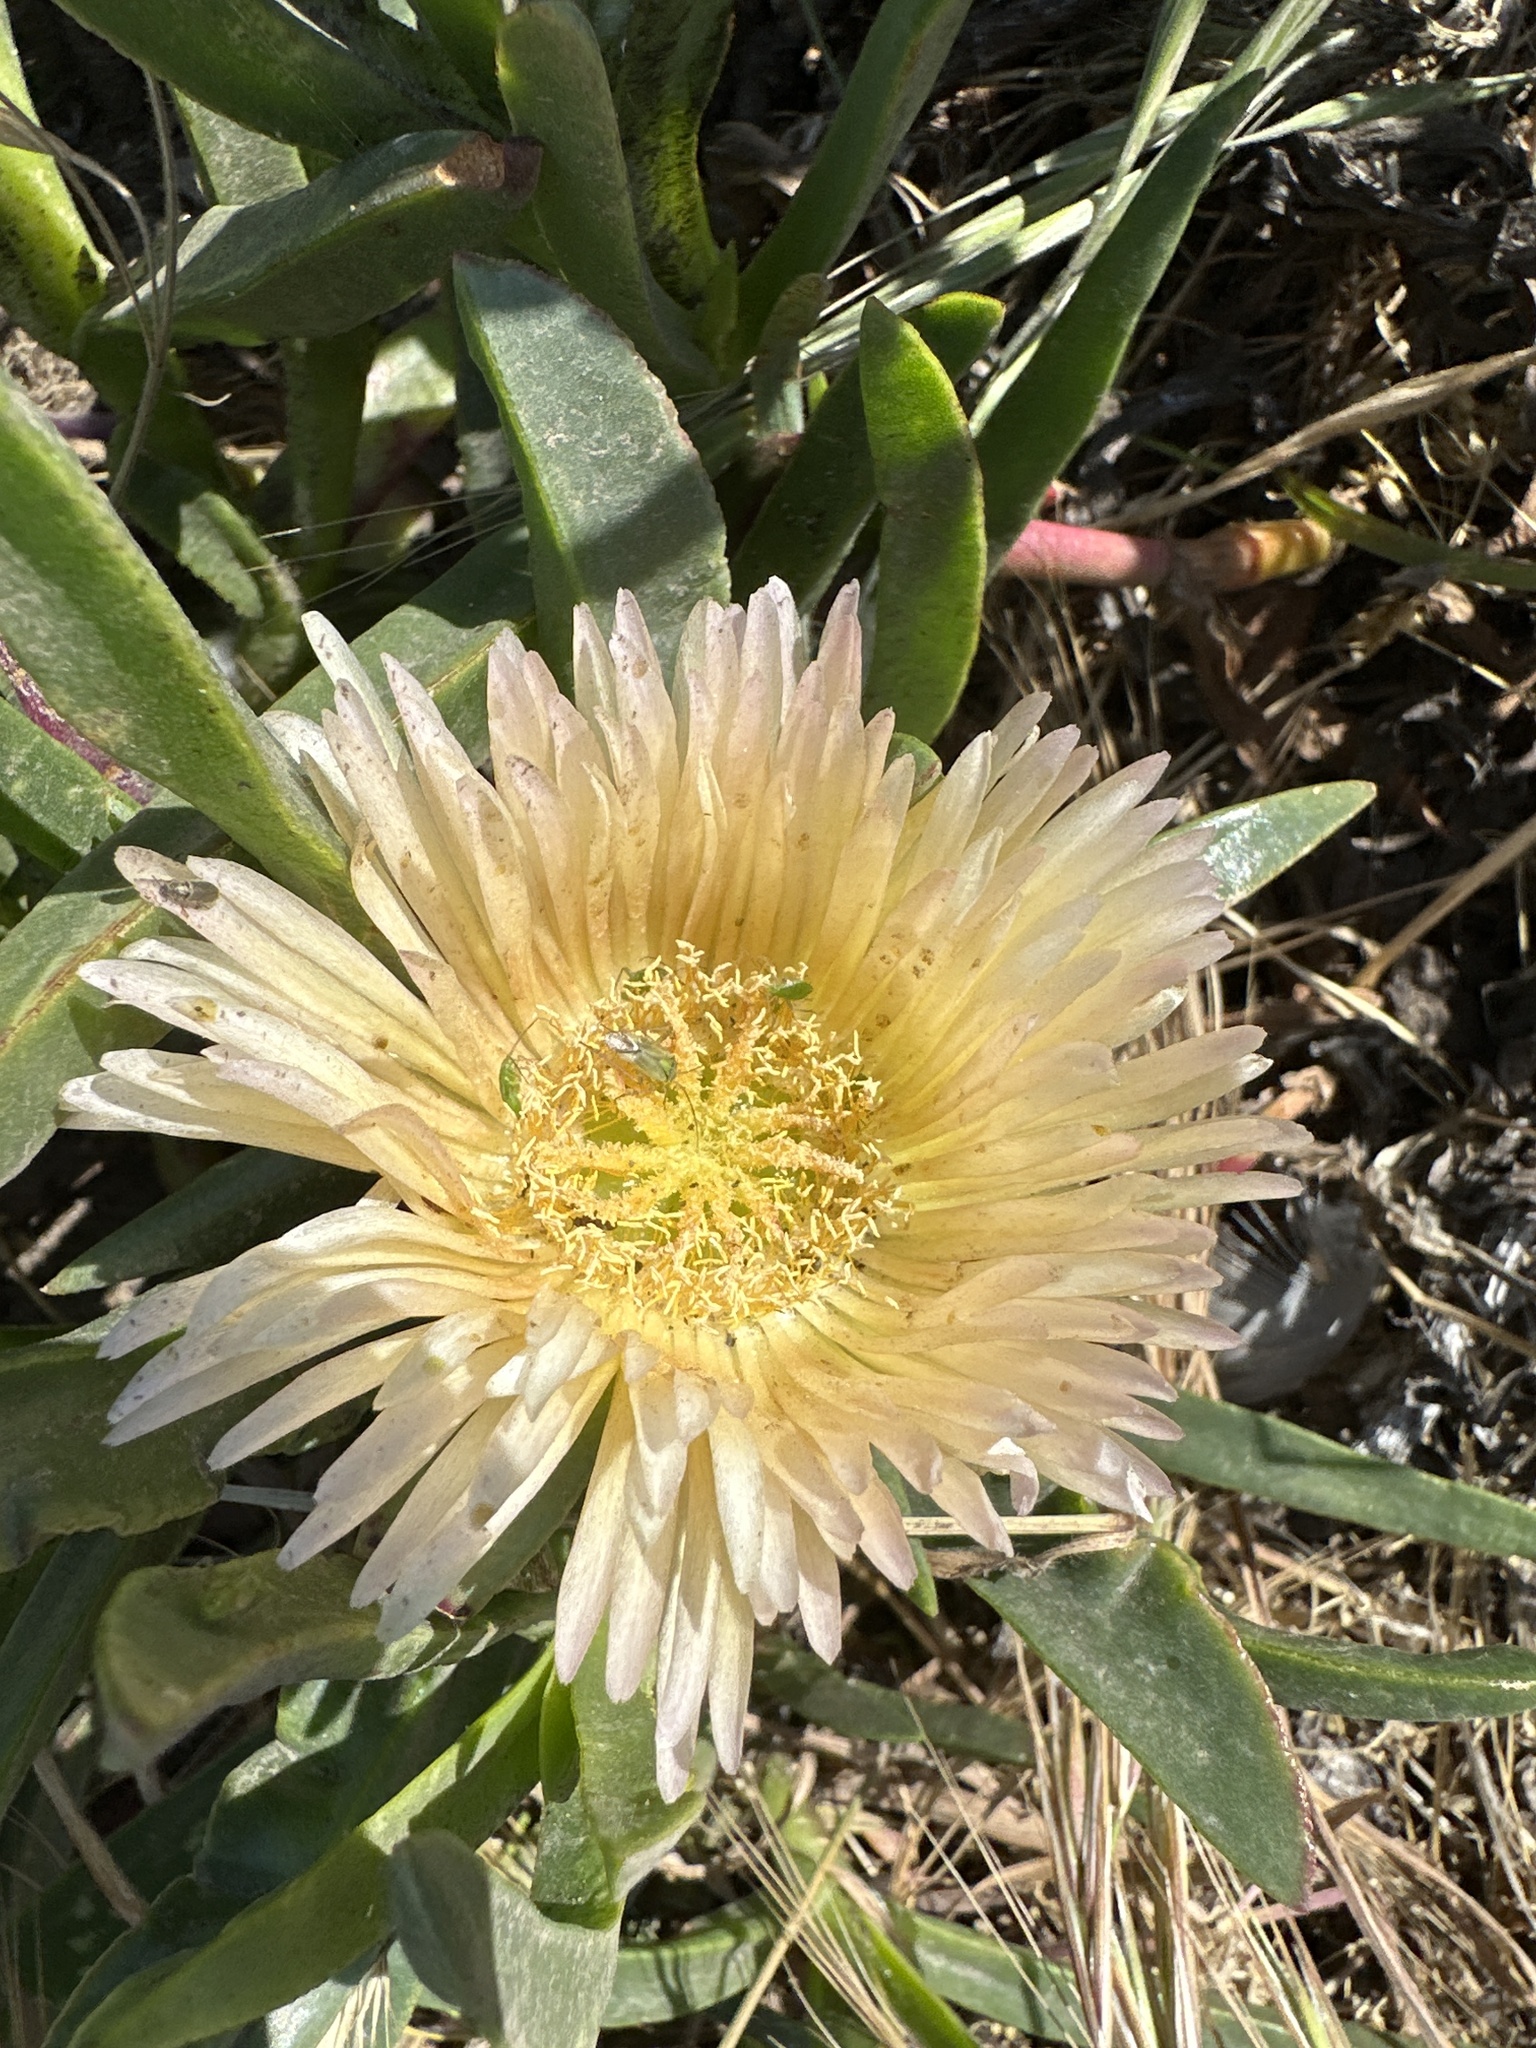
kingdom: Plantae
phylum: Tracheophyta
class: Magnoliopsida
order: Caryophyllales
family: Aizoaceae
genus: Carpobrotus
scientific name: Carpobrotus edulis
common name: Hottentot-fig
